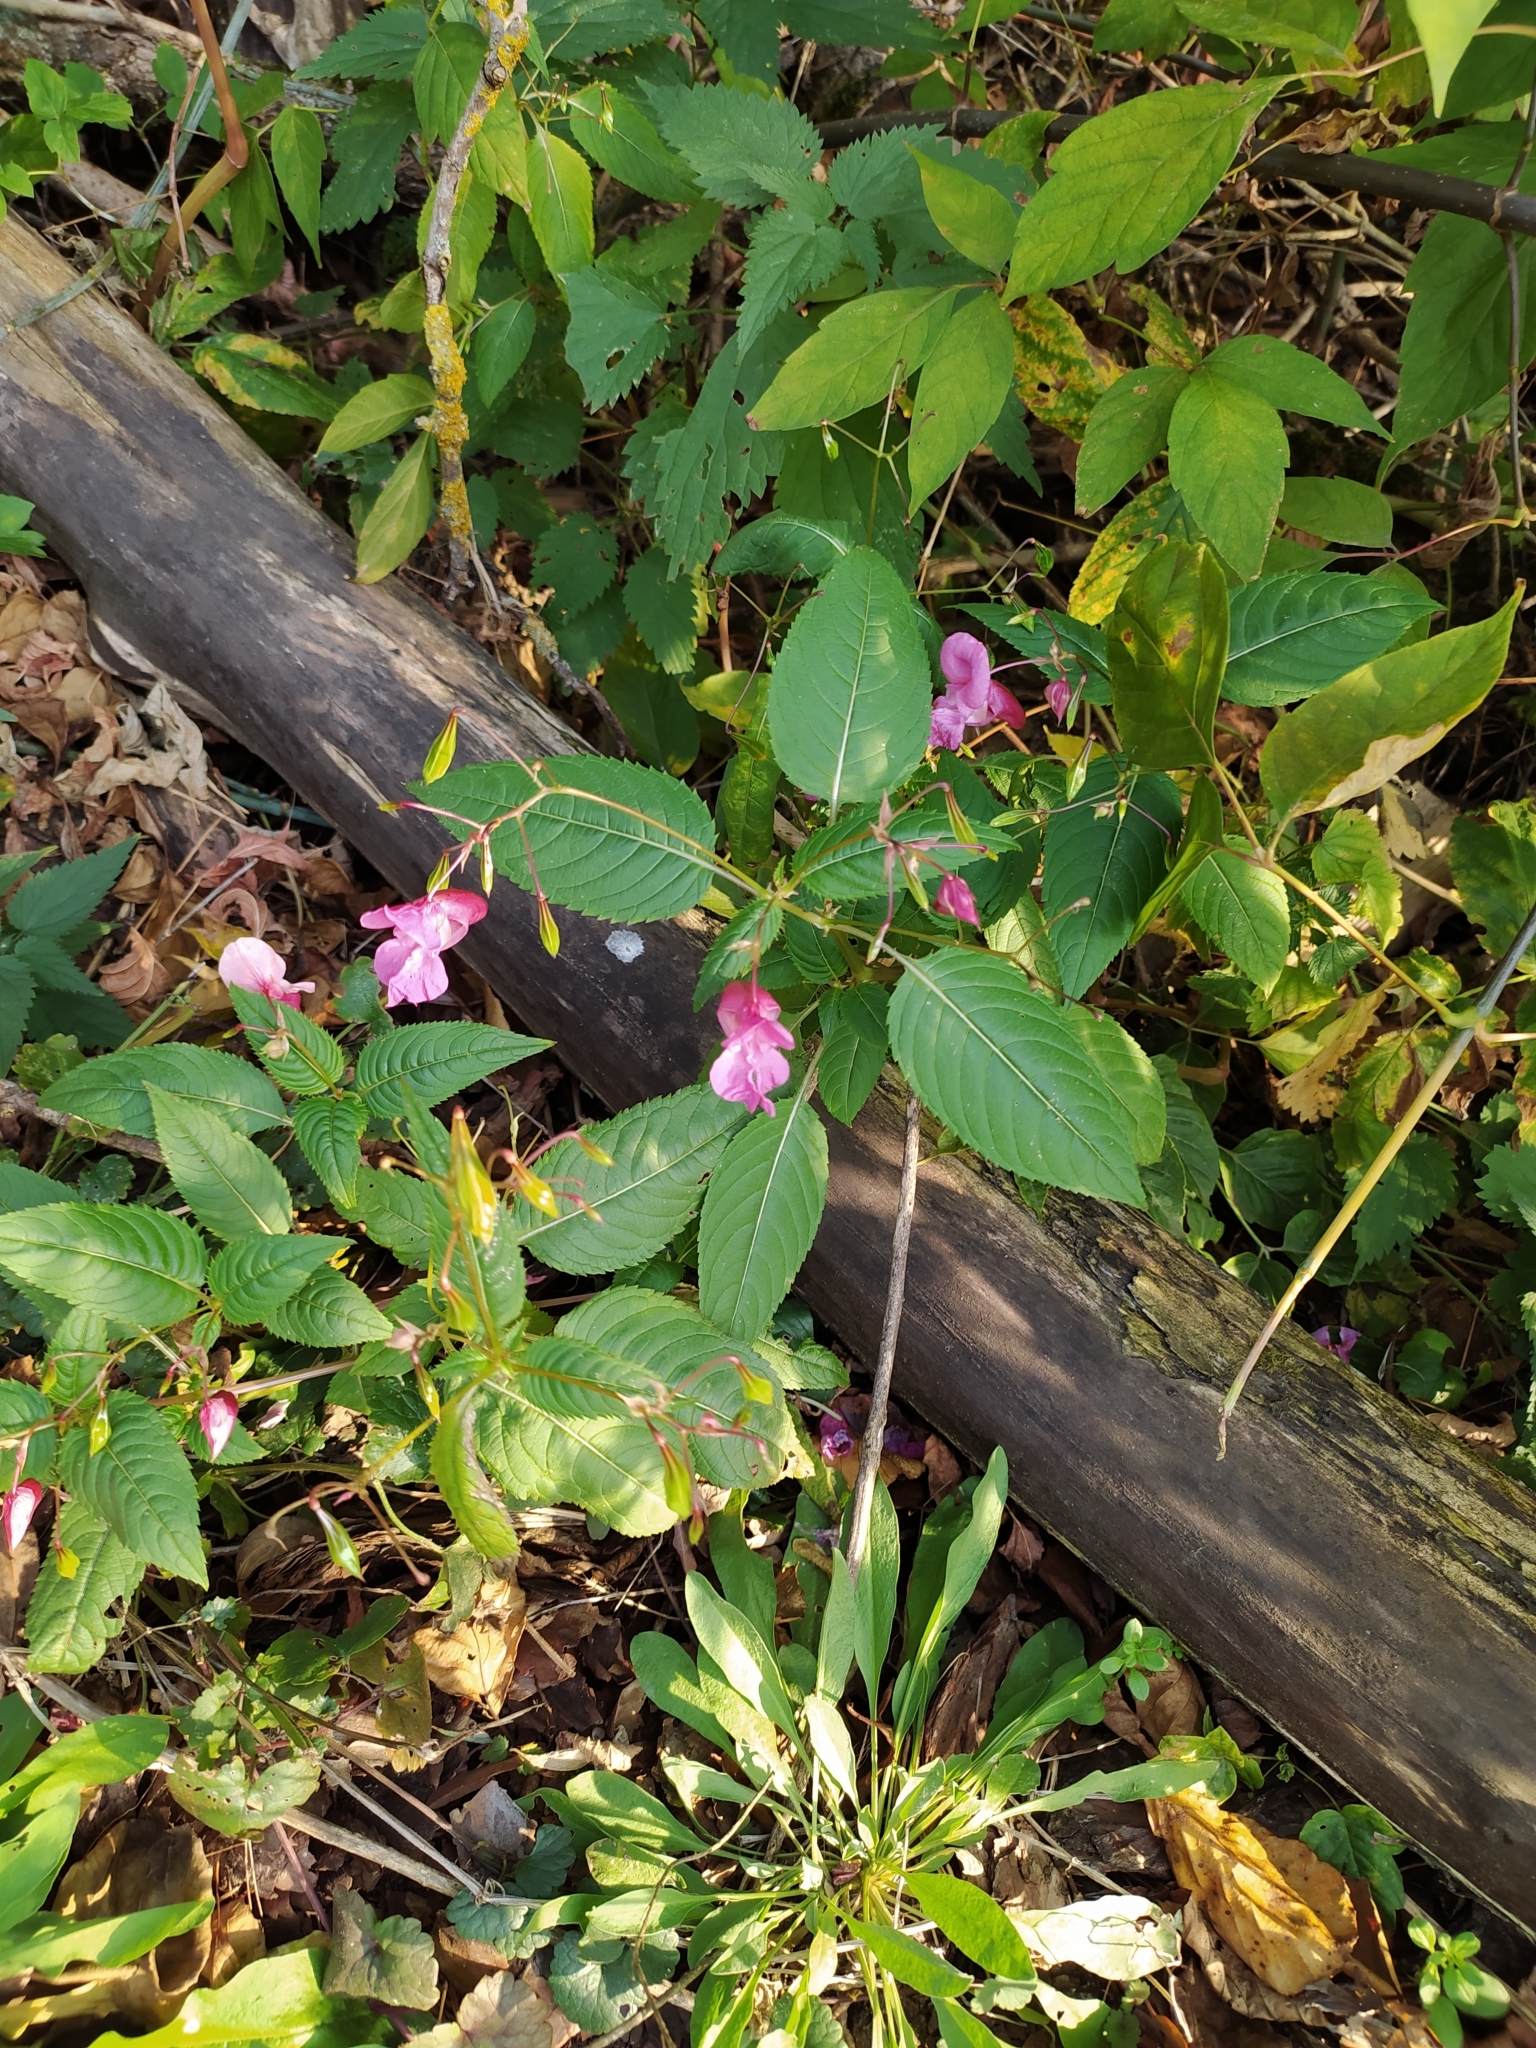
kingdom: Plantae
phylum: Tracheophyta
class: Magnoliopsida
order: Ericales
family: Balsaminaceae
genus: Impatiens
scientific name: Impatiens glandulifera
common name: Himalayan balsam
